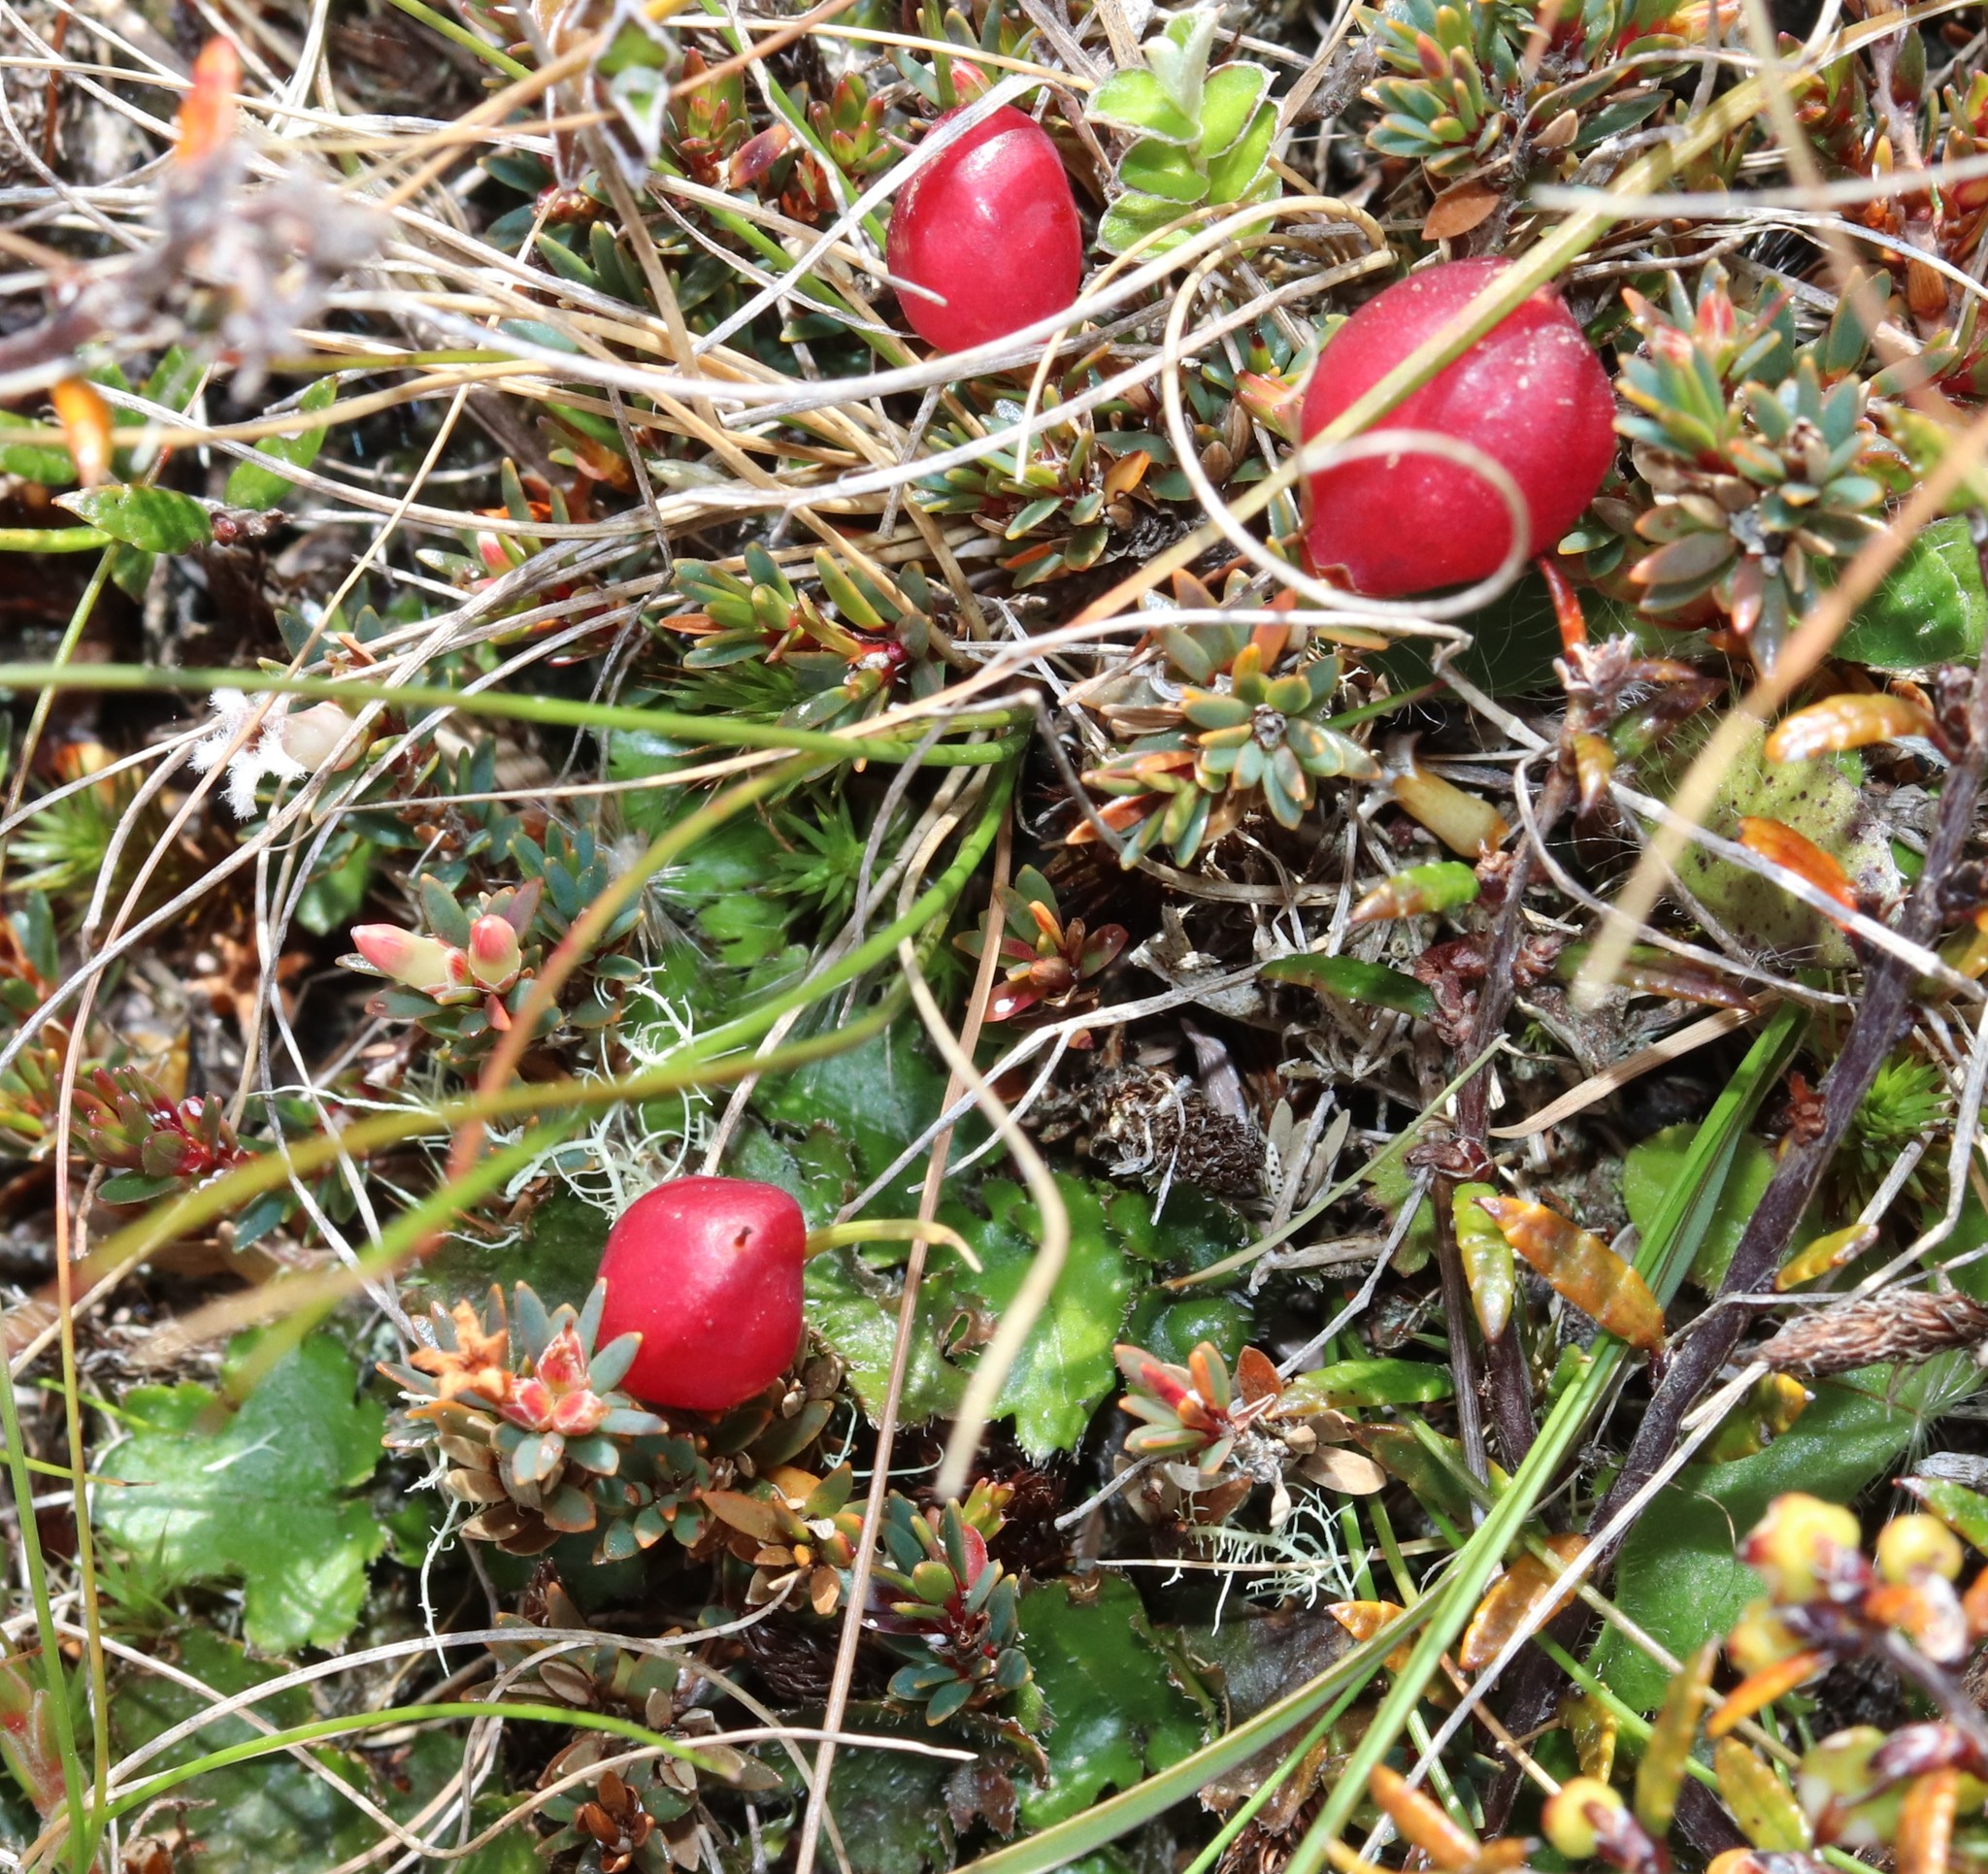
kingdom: Plantae
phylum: Tracheophyta
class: Magnoliopsida
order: Ericales
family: Ericaceae
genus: Pentachondra
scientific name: Pentachondra pumila
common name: Carpet-heath
